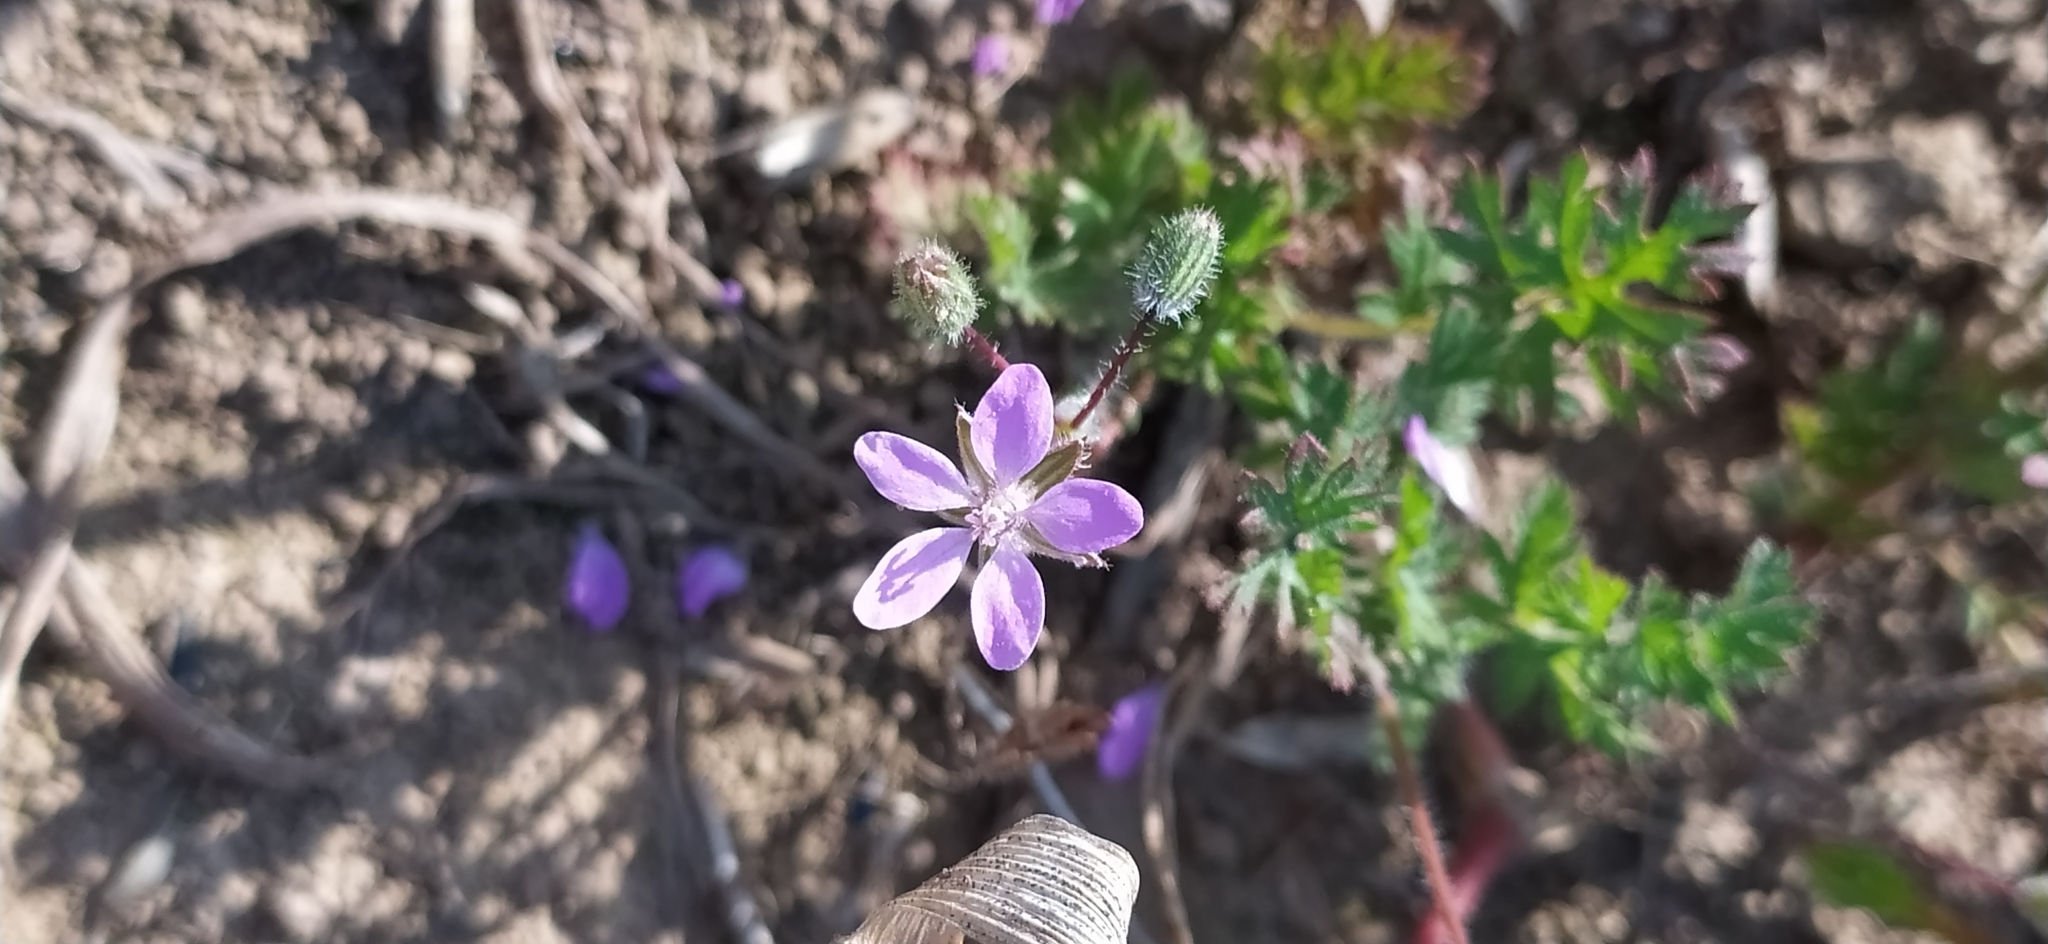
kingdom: Plantae
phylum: Tracheophyta
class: Magnoliopsida
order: Geraniales
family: Geraniaceae
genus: Erodium
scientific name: Erodium cicutarium
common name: Common stork's-bill
